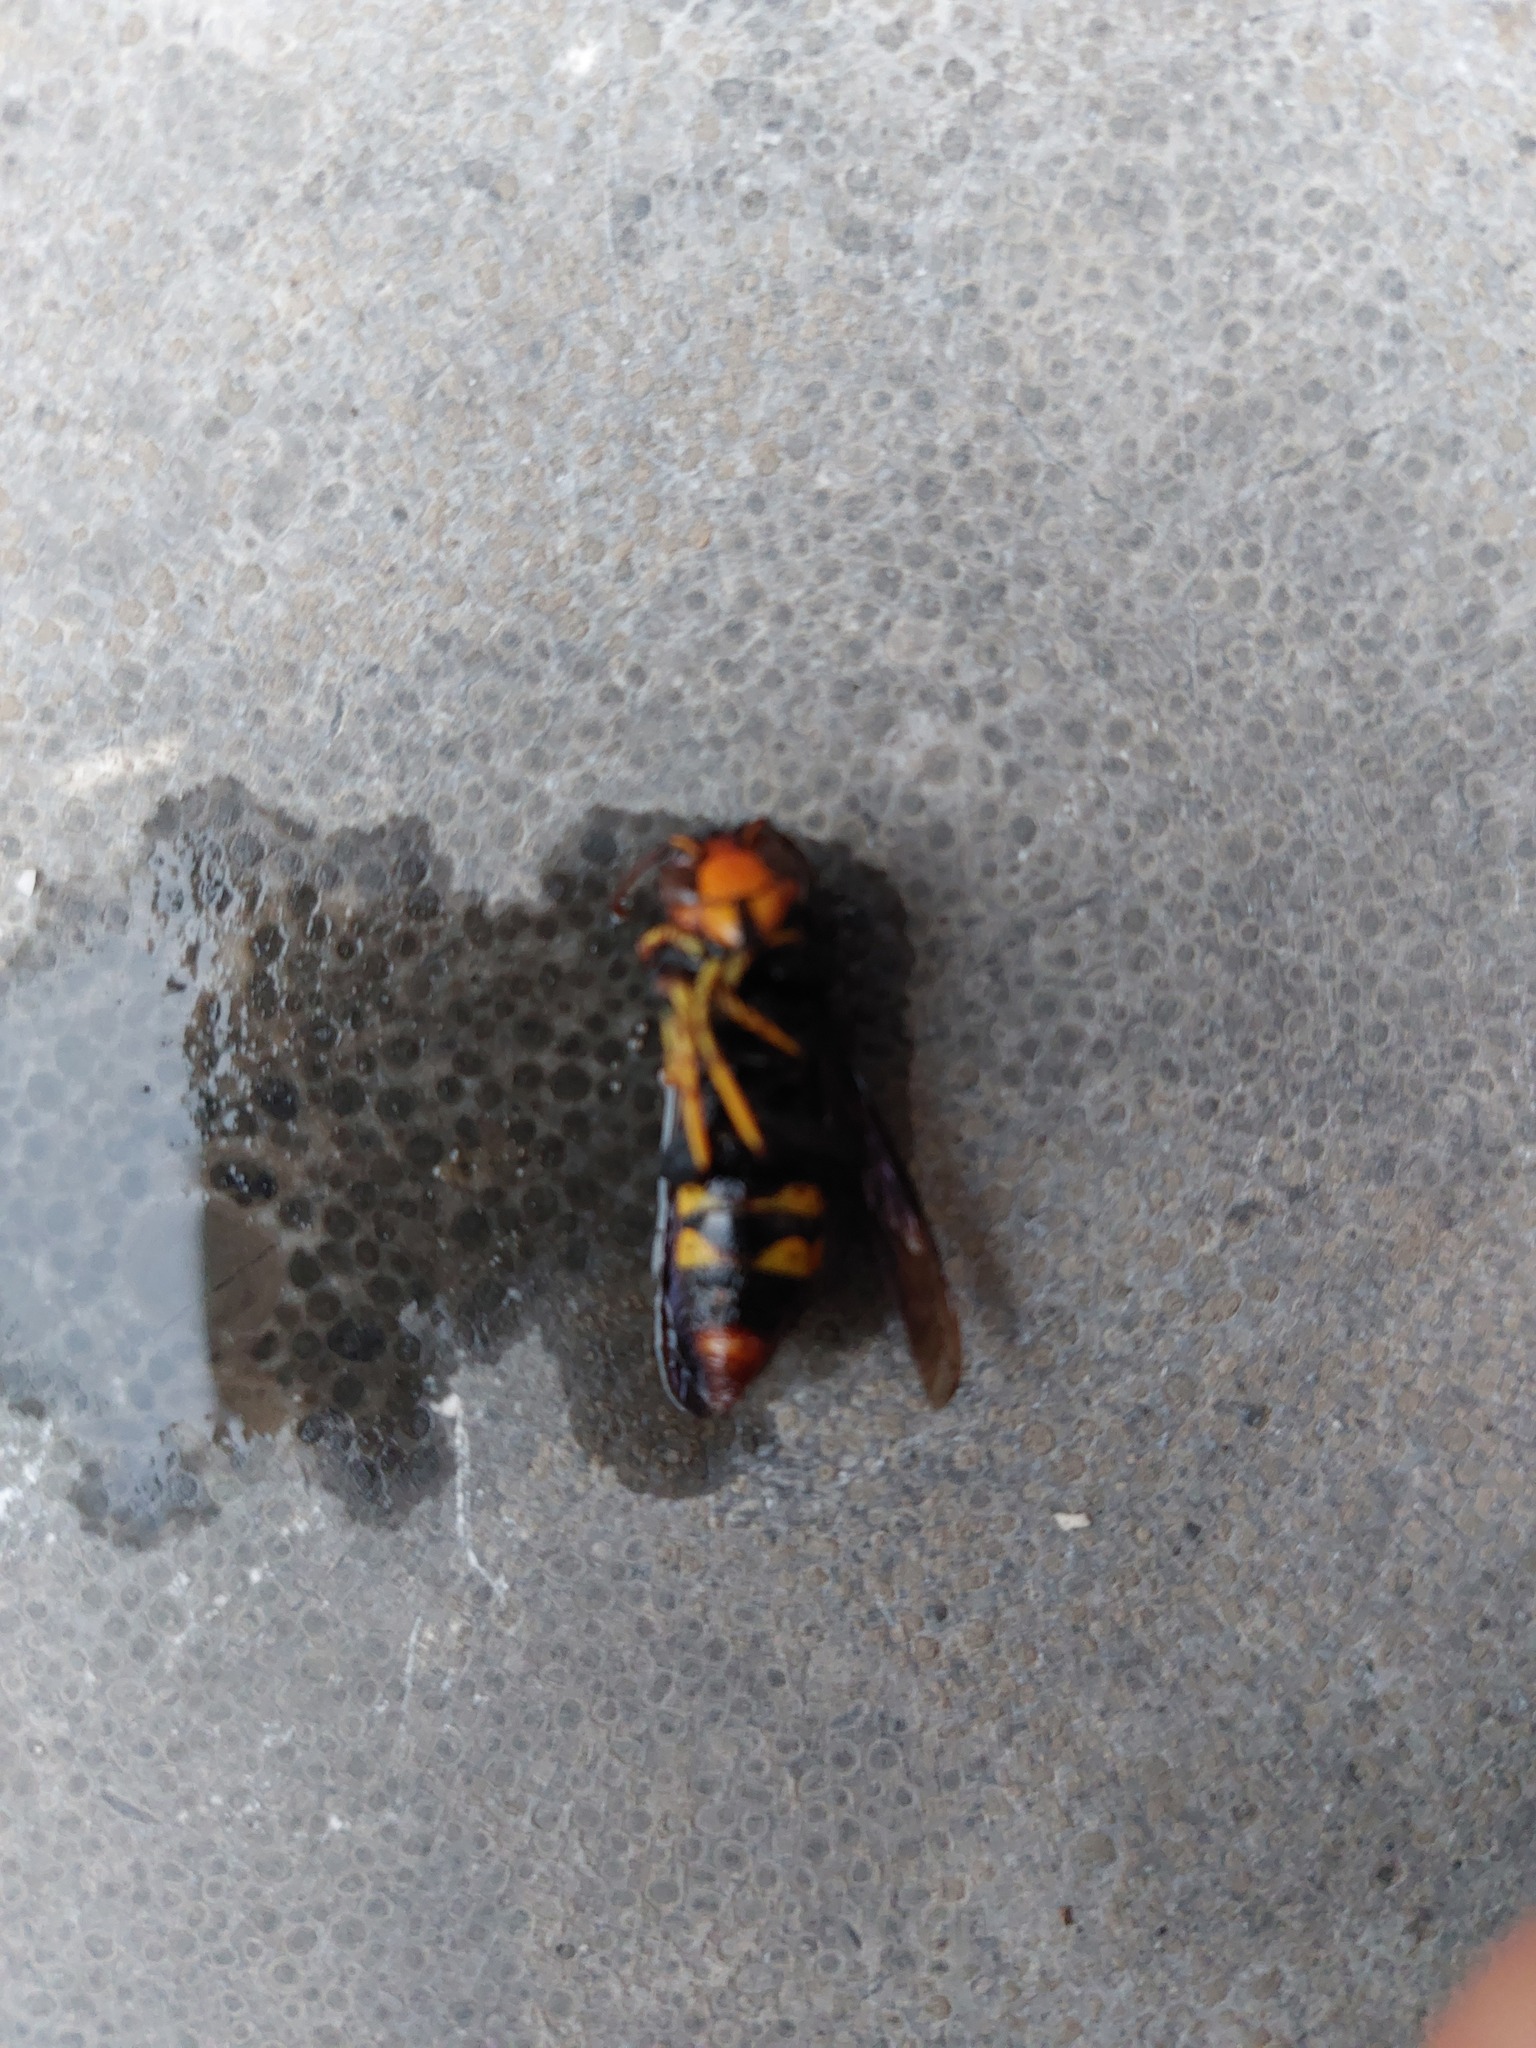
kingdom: Animalia
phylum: Arthropoda
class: Insecta
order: Hymenoptera
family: Vespidae
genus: Vespa
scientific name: Vespa velutina
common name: Asian hornet
